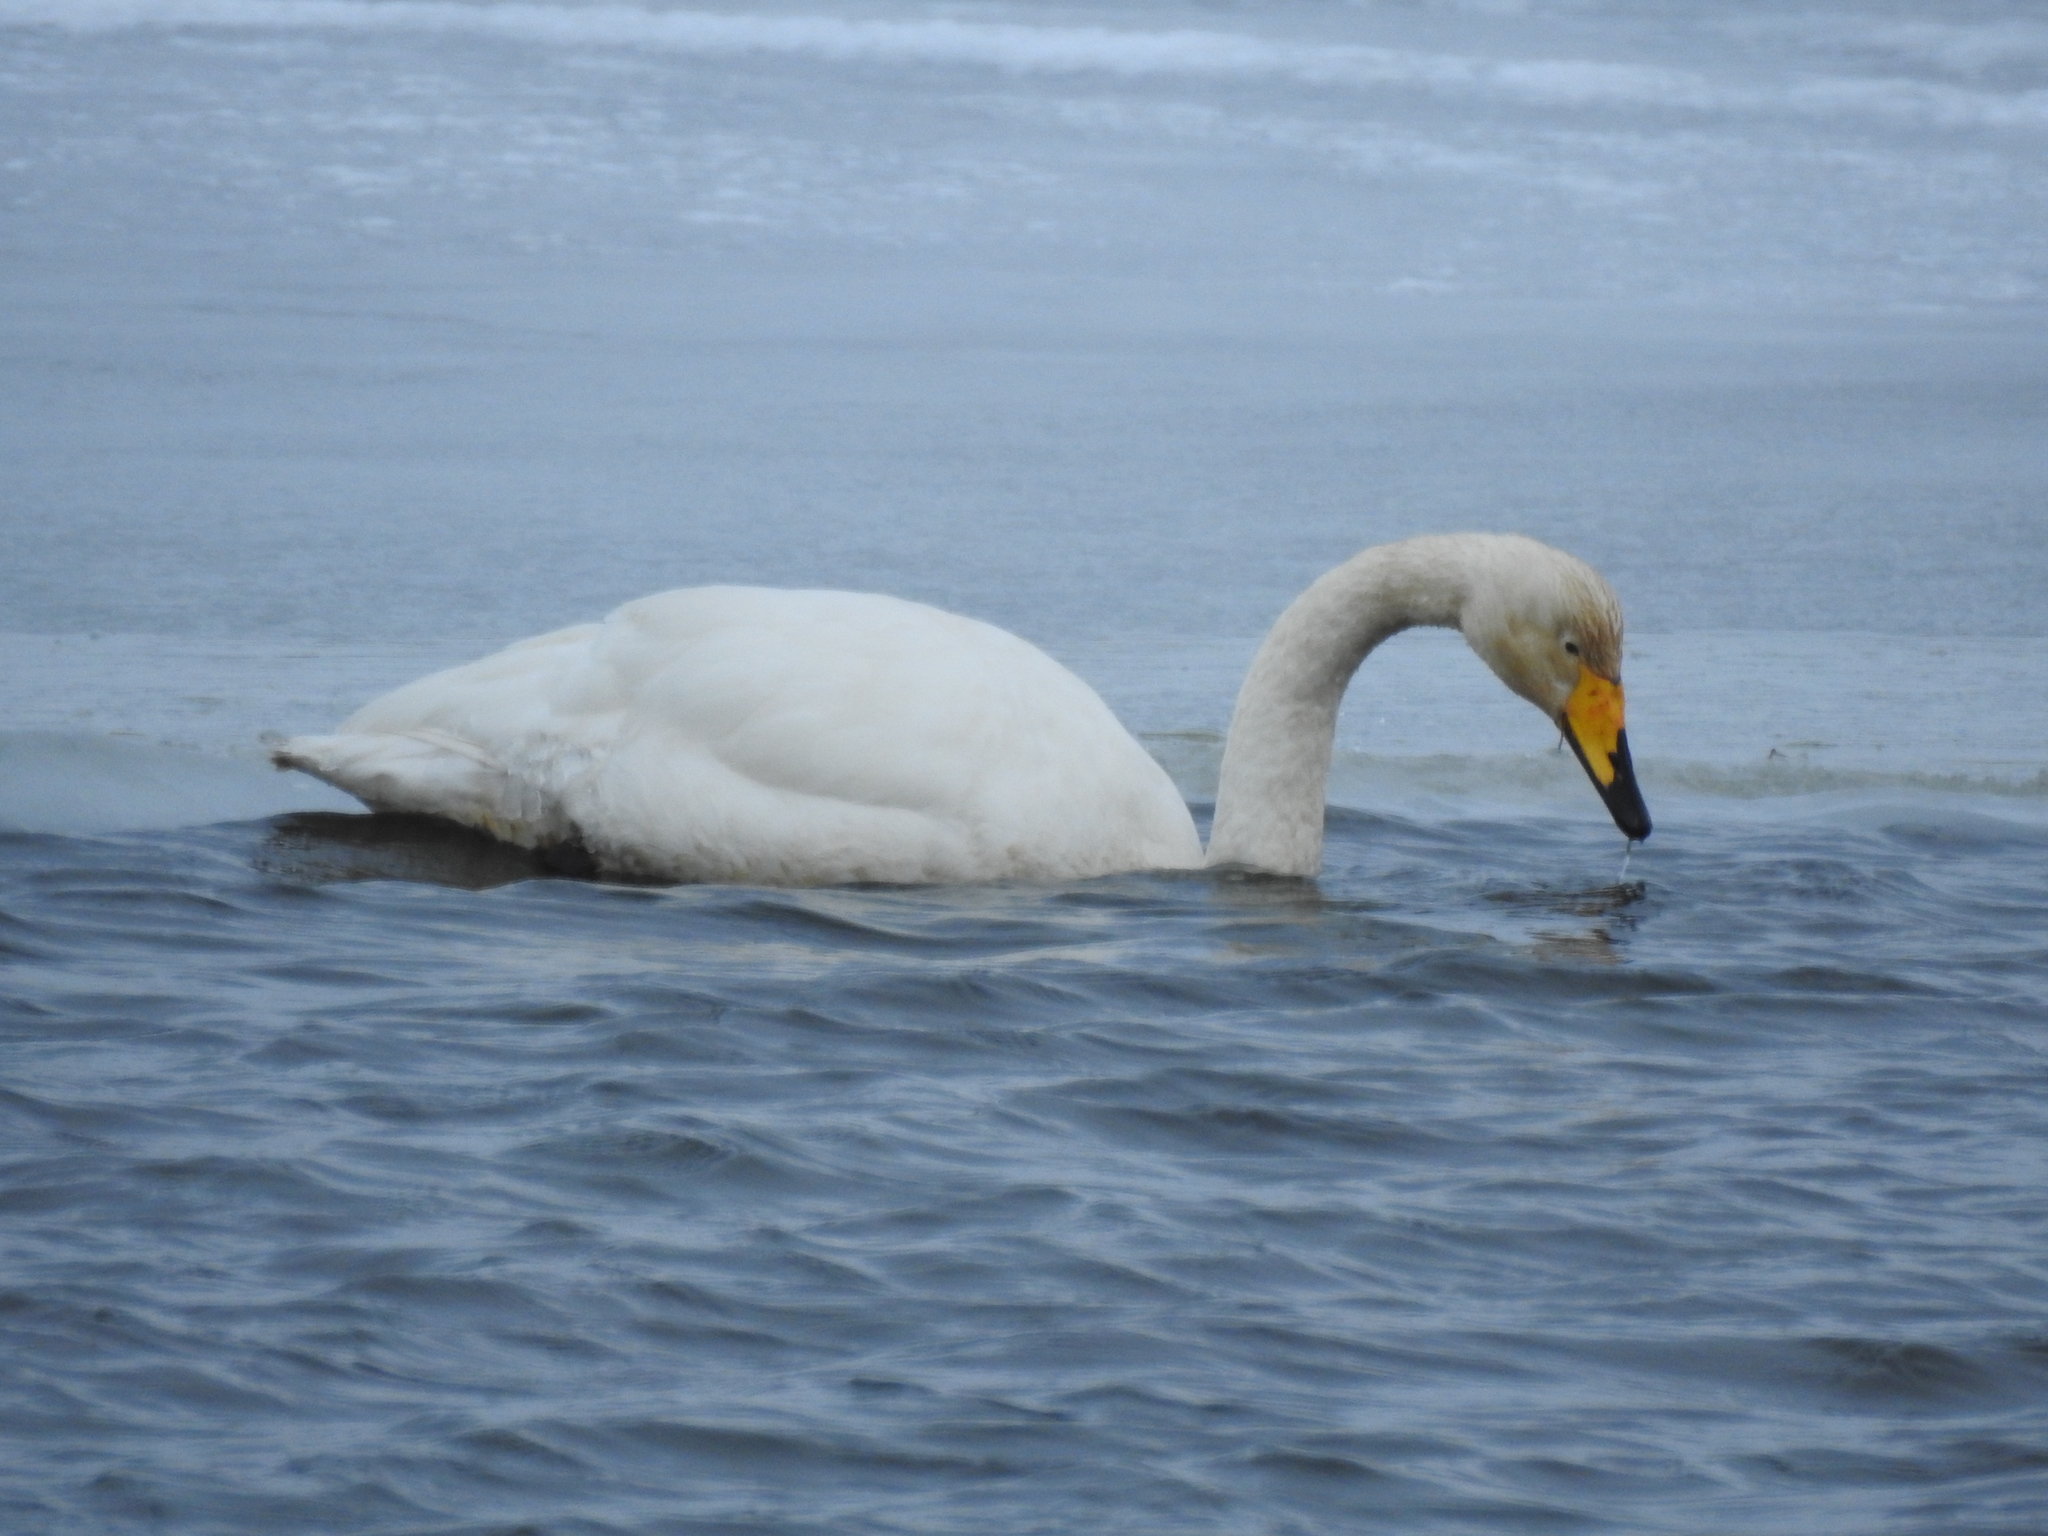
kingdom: Animalia
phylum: Chordata
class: Aves
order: Anseriformes
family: Anatidae
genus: Cygnus
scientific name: Cygnus cygnus
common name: Whooper swan
